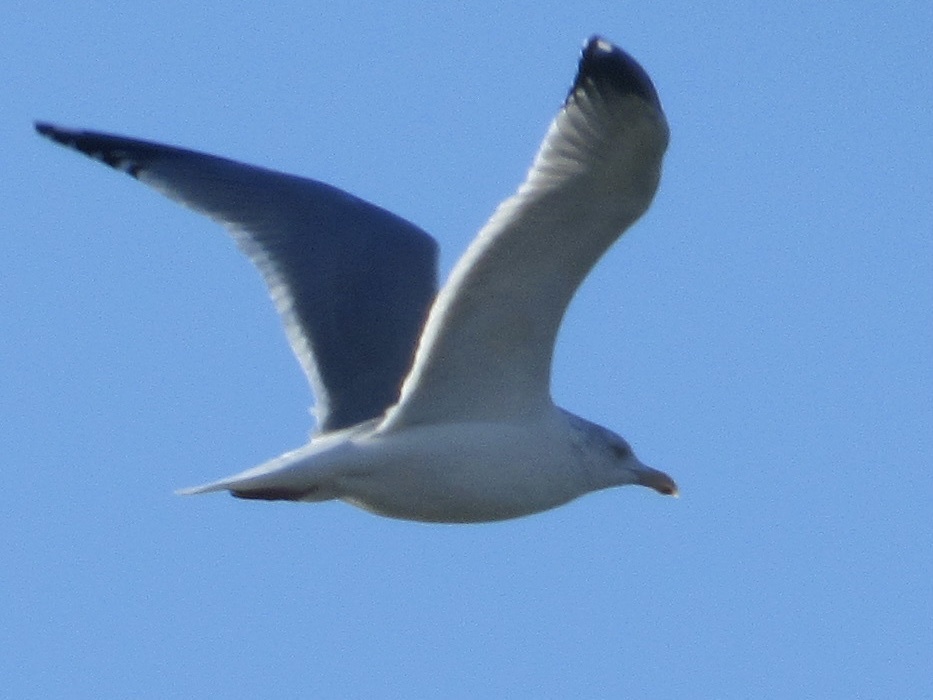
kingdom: Animalia
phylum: Chordata
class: Aves
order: Charadriiformes
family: Laridae
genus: Larus
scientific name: Larus argentatus
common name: Herring gull
